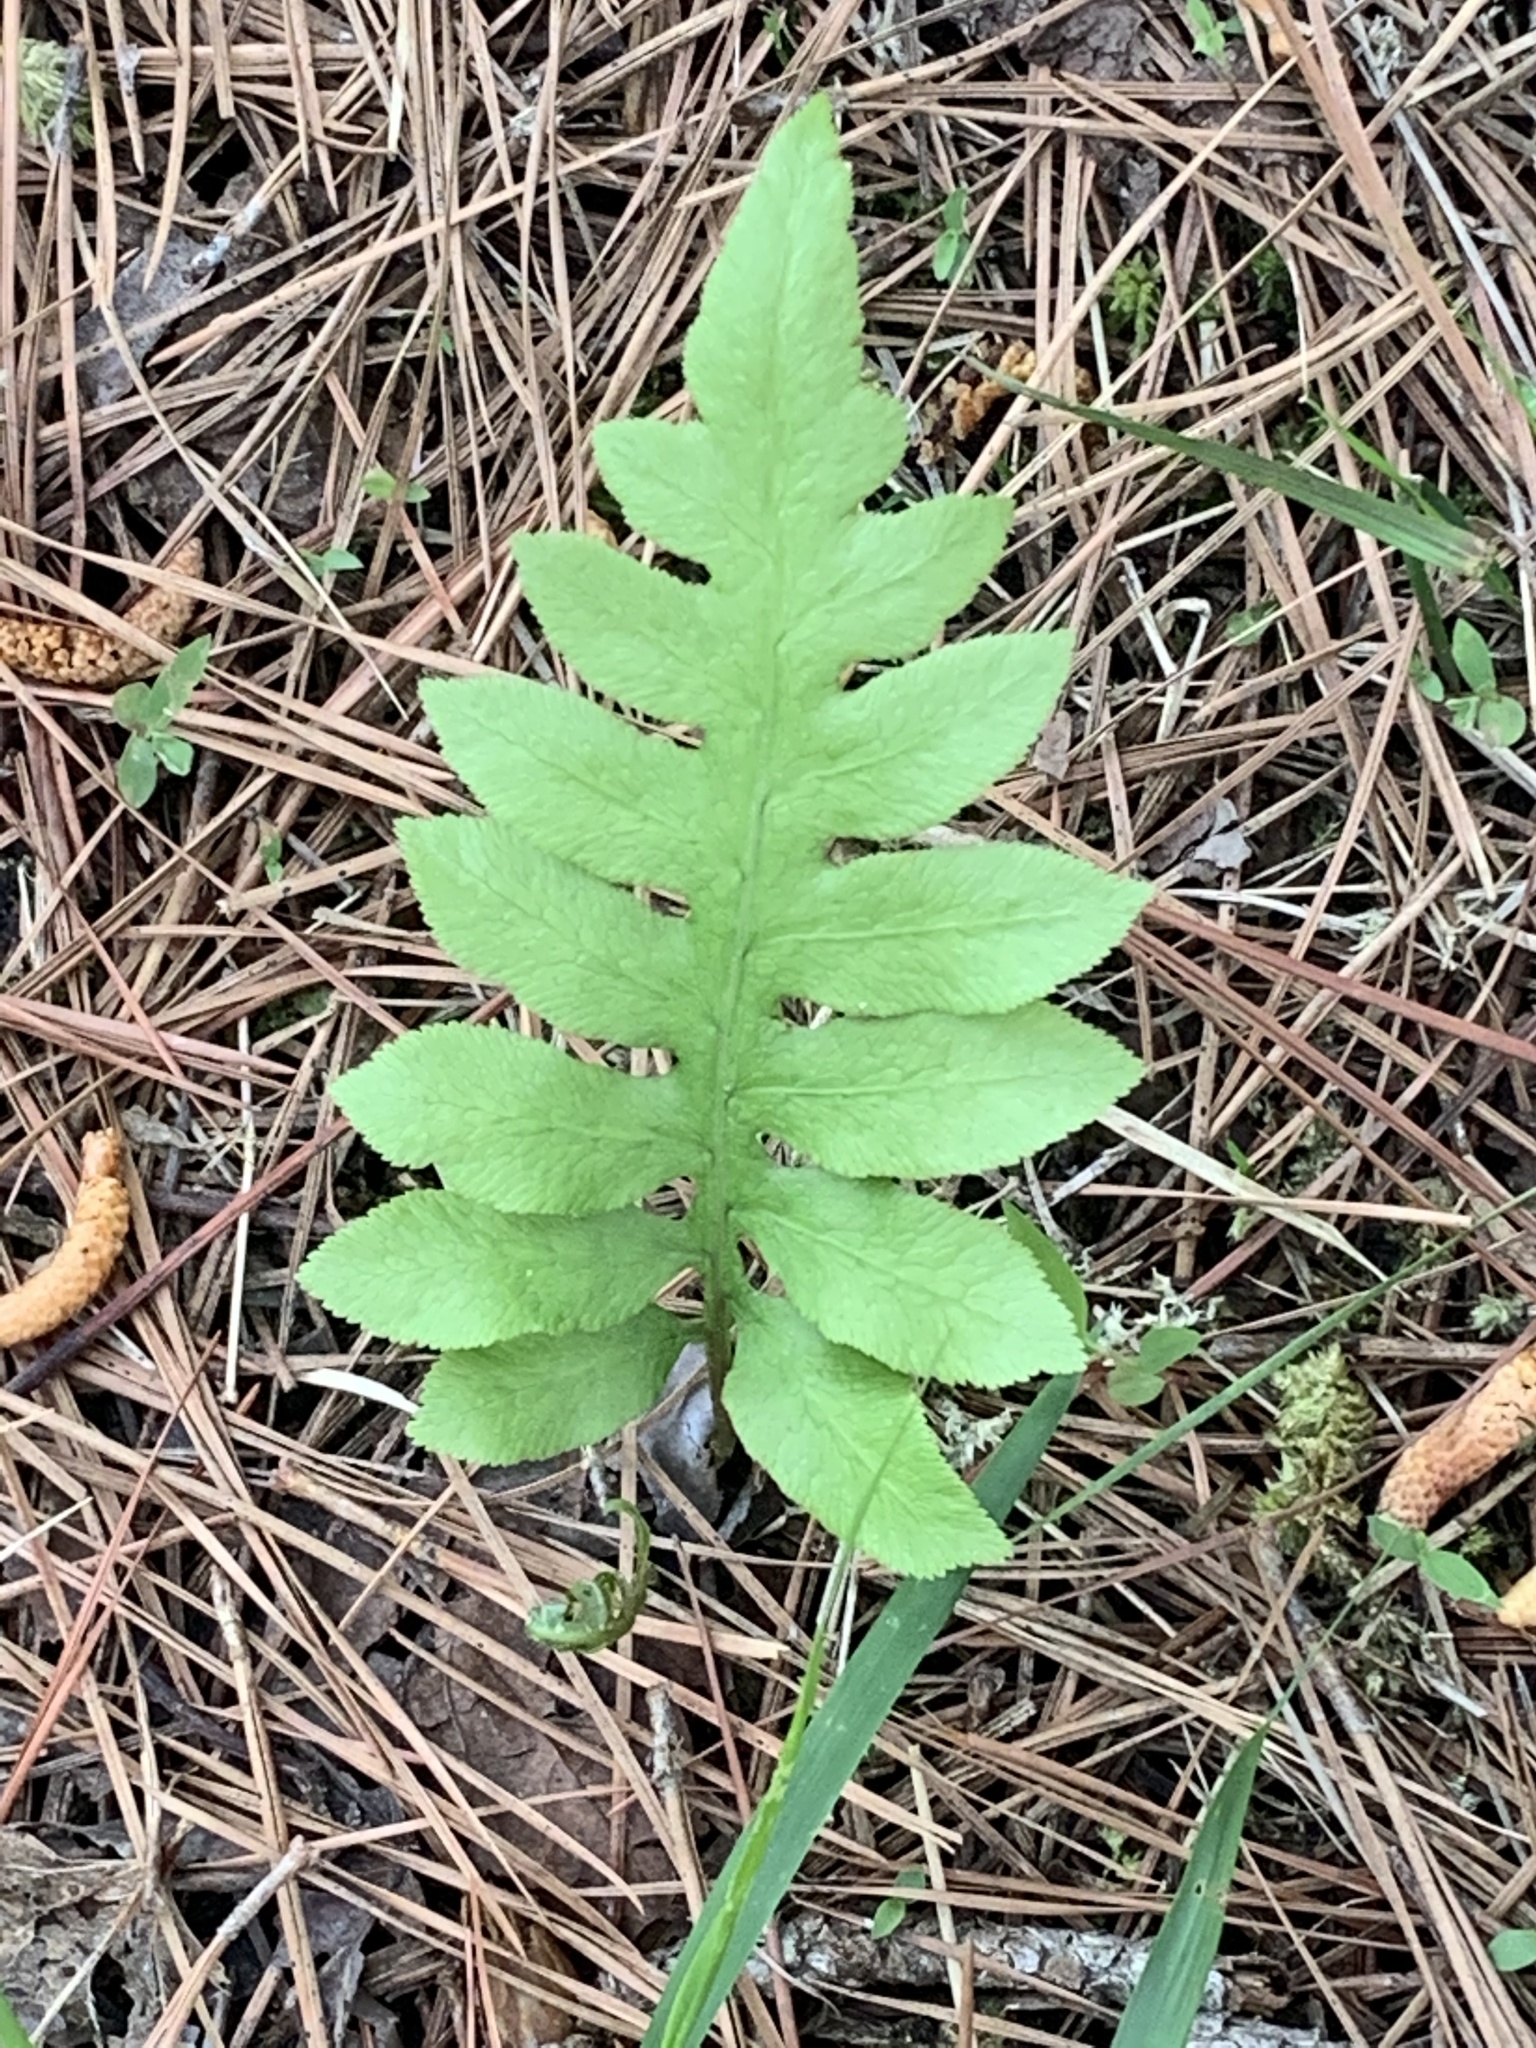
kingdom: Plantae
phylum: Tracheophyta
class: Polypodiopsida
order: Polypodiales
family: Blechnaceae
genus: Lorinseria
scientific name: Lorinseria areolata
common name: Dwarf chain fern
